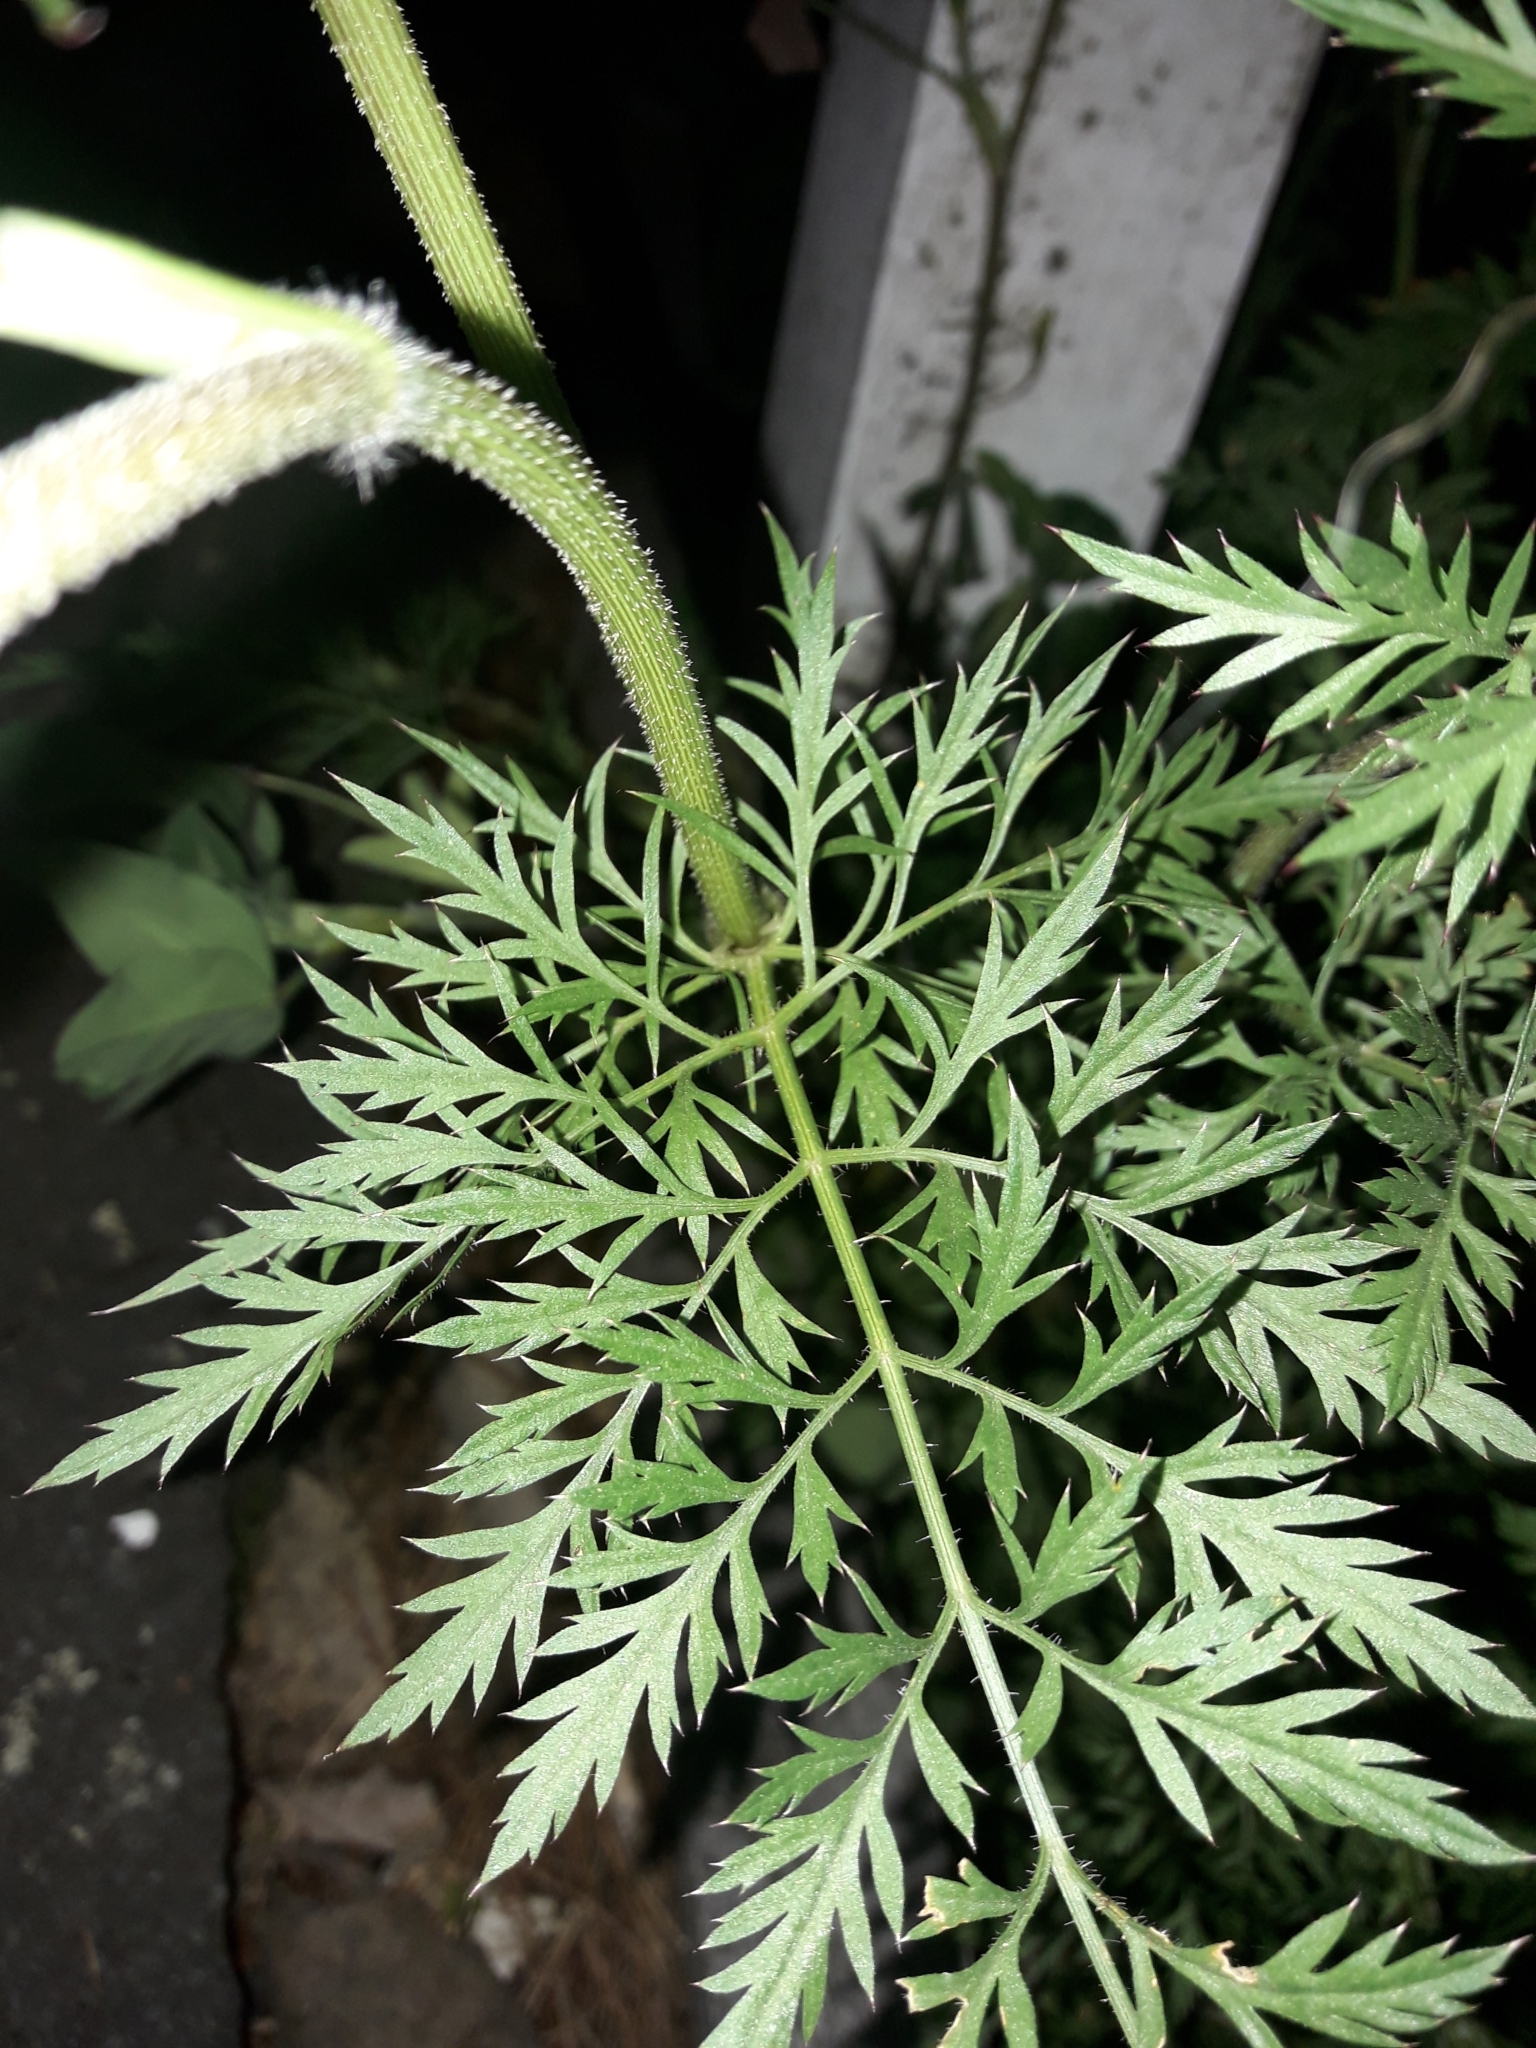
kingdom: Plantae
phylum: Tracheophyta
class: Magnoliopsida
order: Apiales
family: Apiaceae
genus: Daucus
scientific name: Daucus carota
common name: Wild carrot
